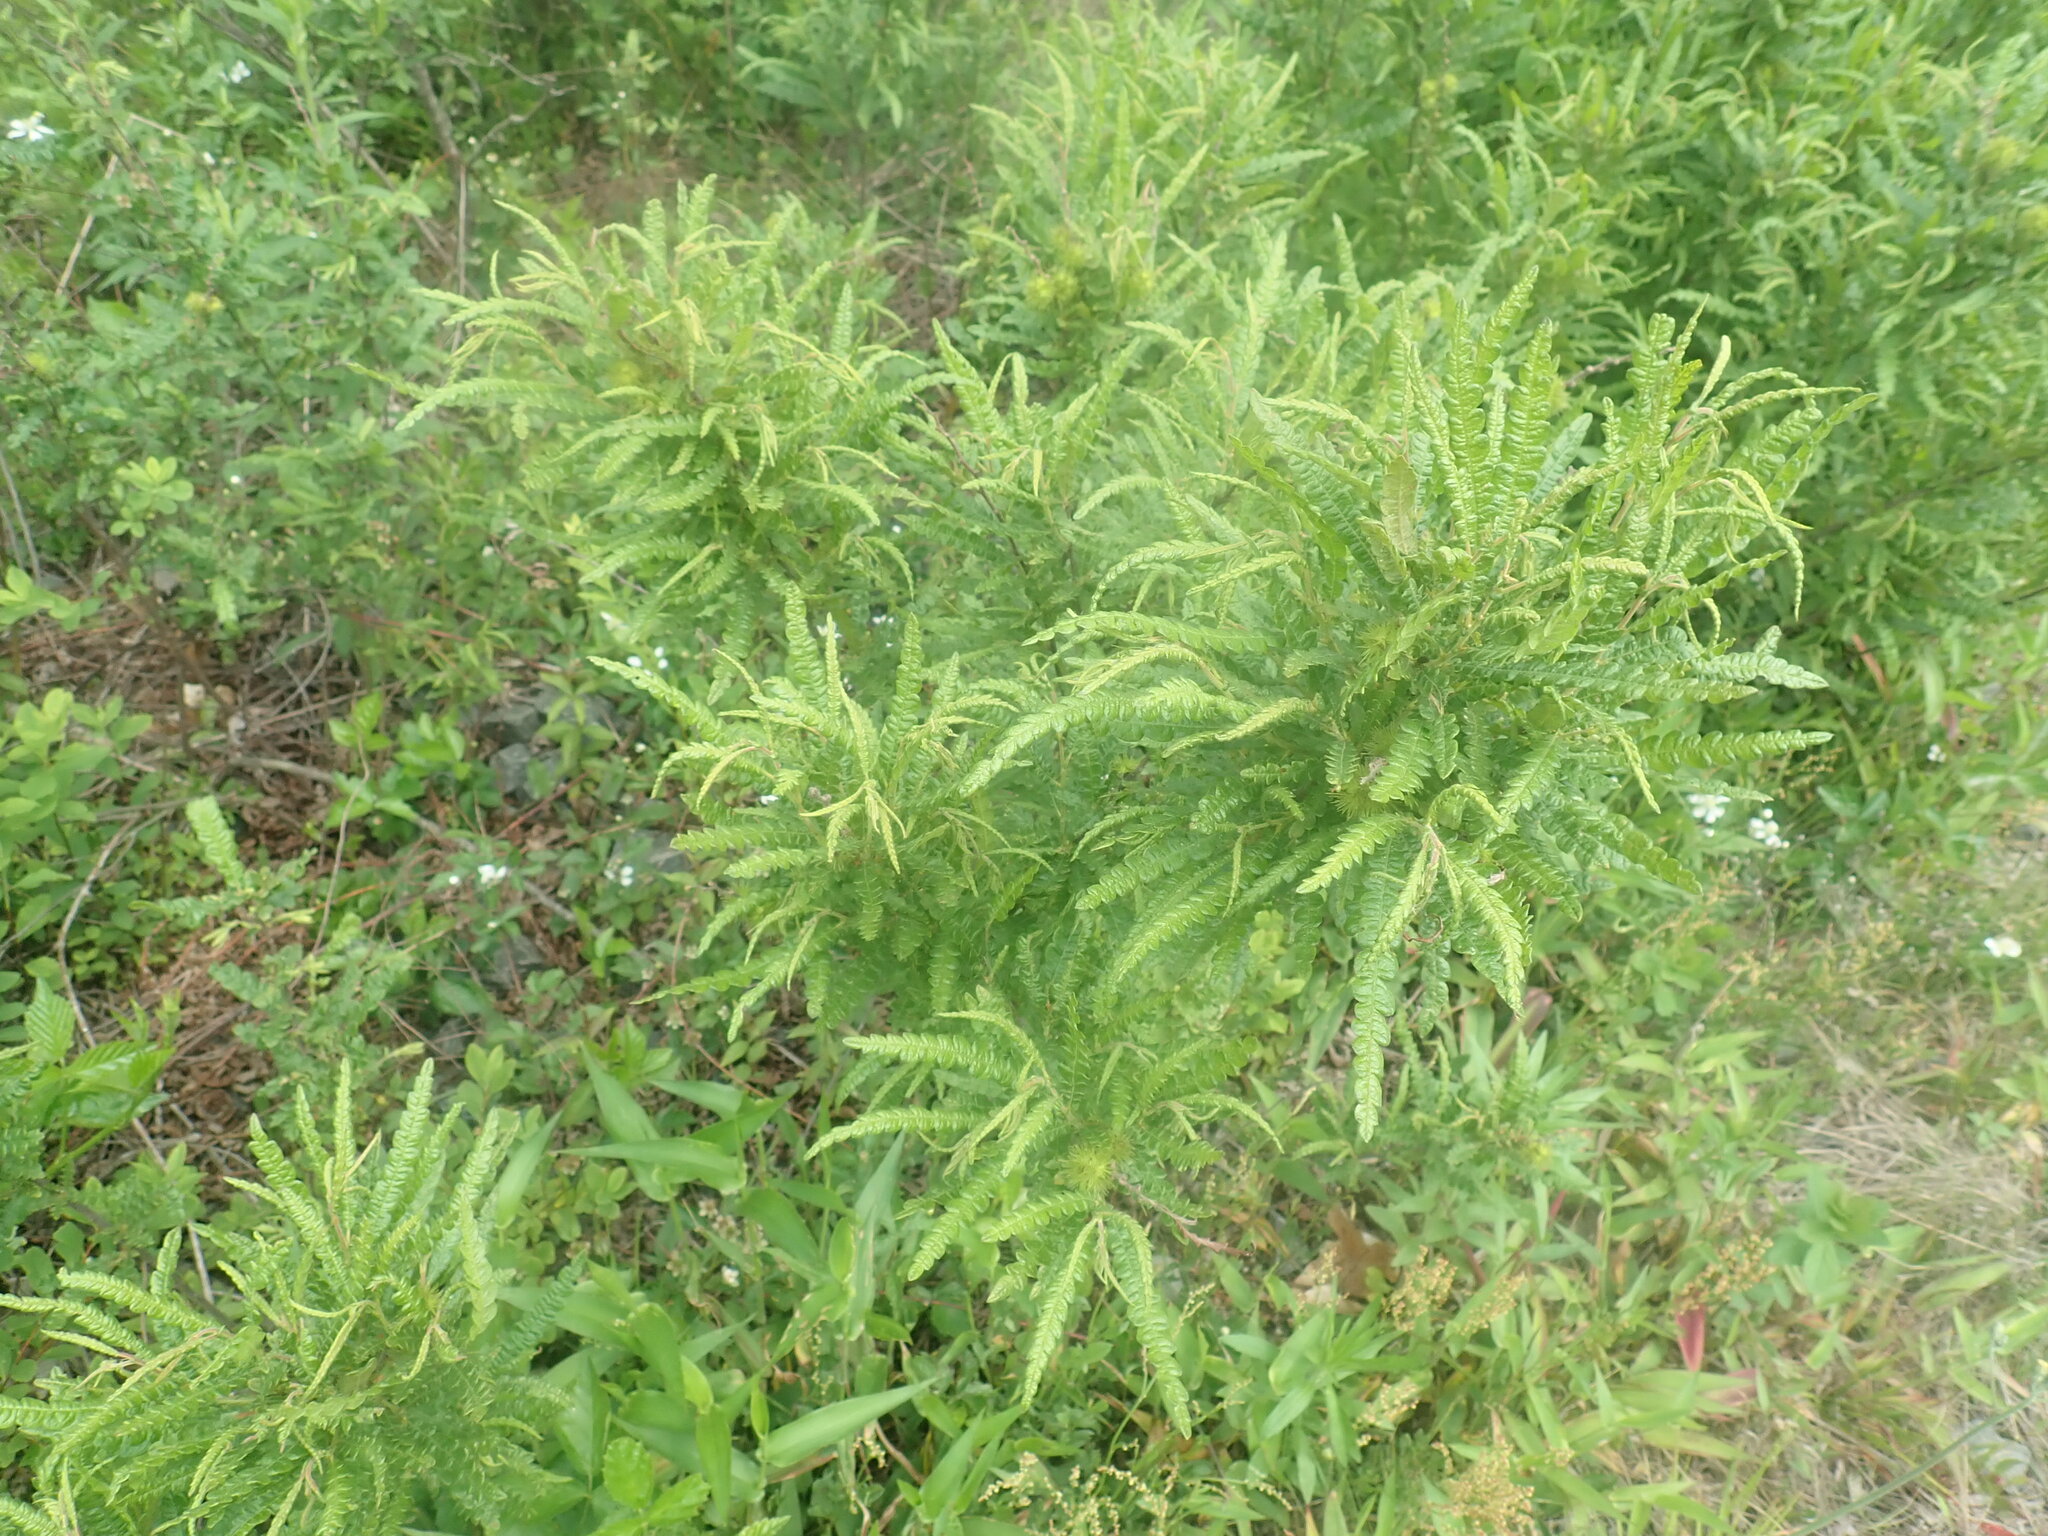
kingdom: Plantae
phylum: Tracheophyta
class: Magnoliopsida
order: Fagales
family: Myricaceae
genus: Comptonia
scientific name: Comptonia peregrina
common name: Sweet-fern
